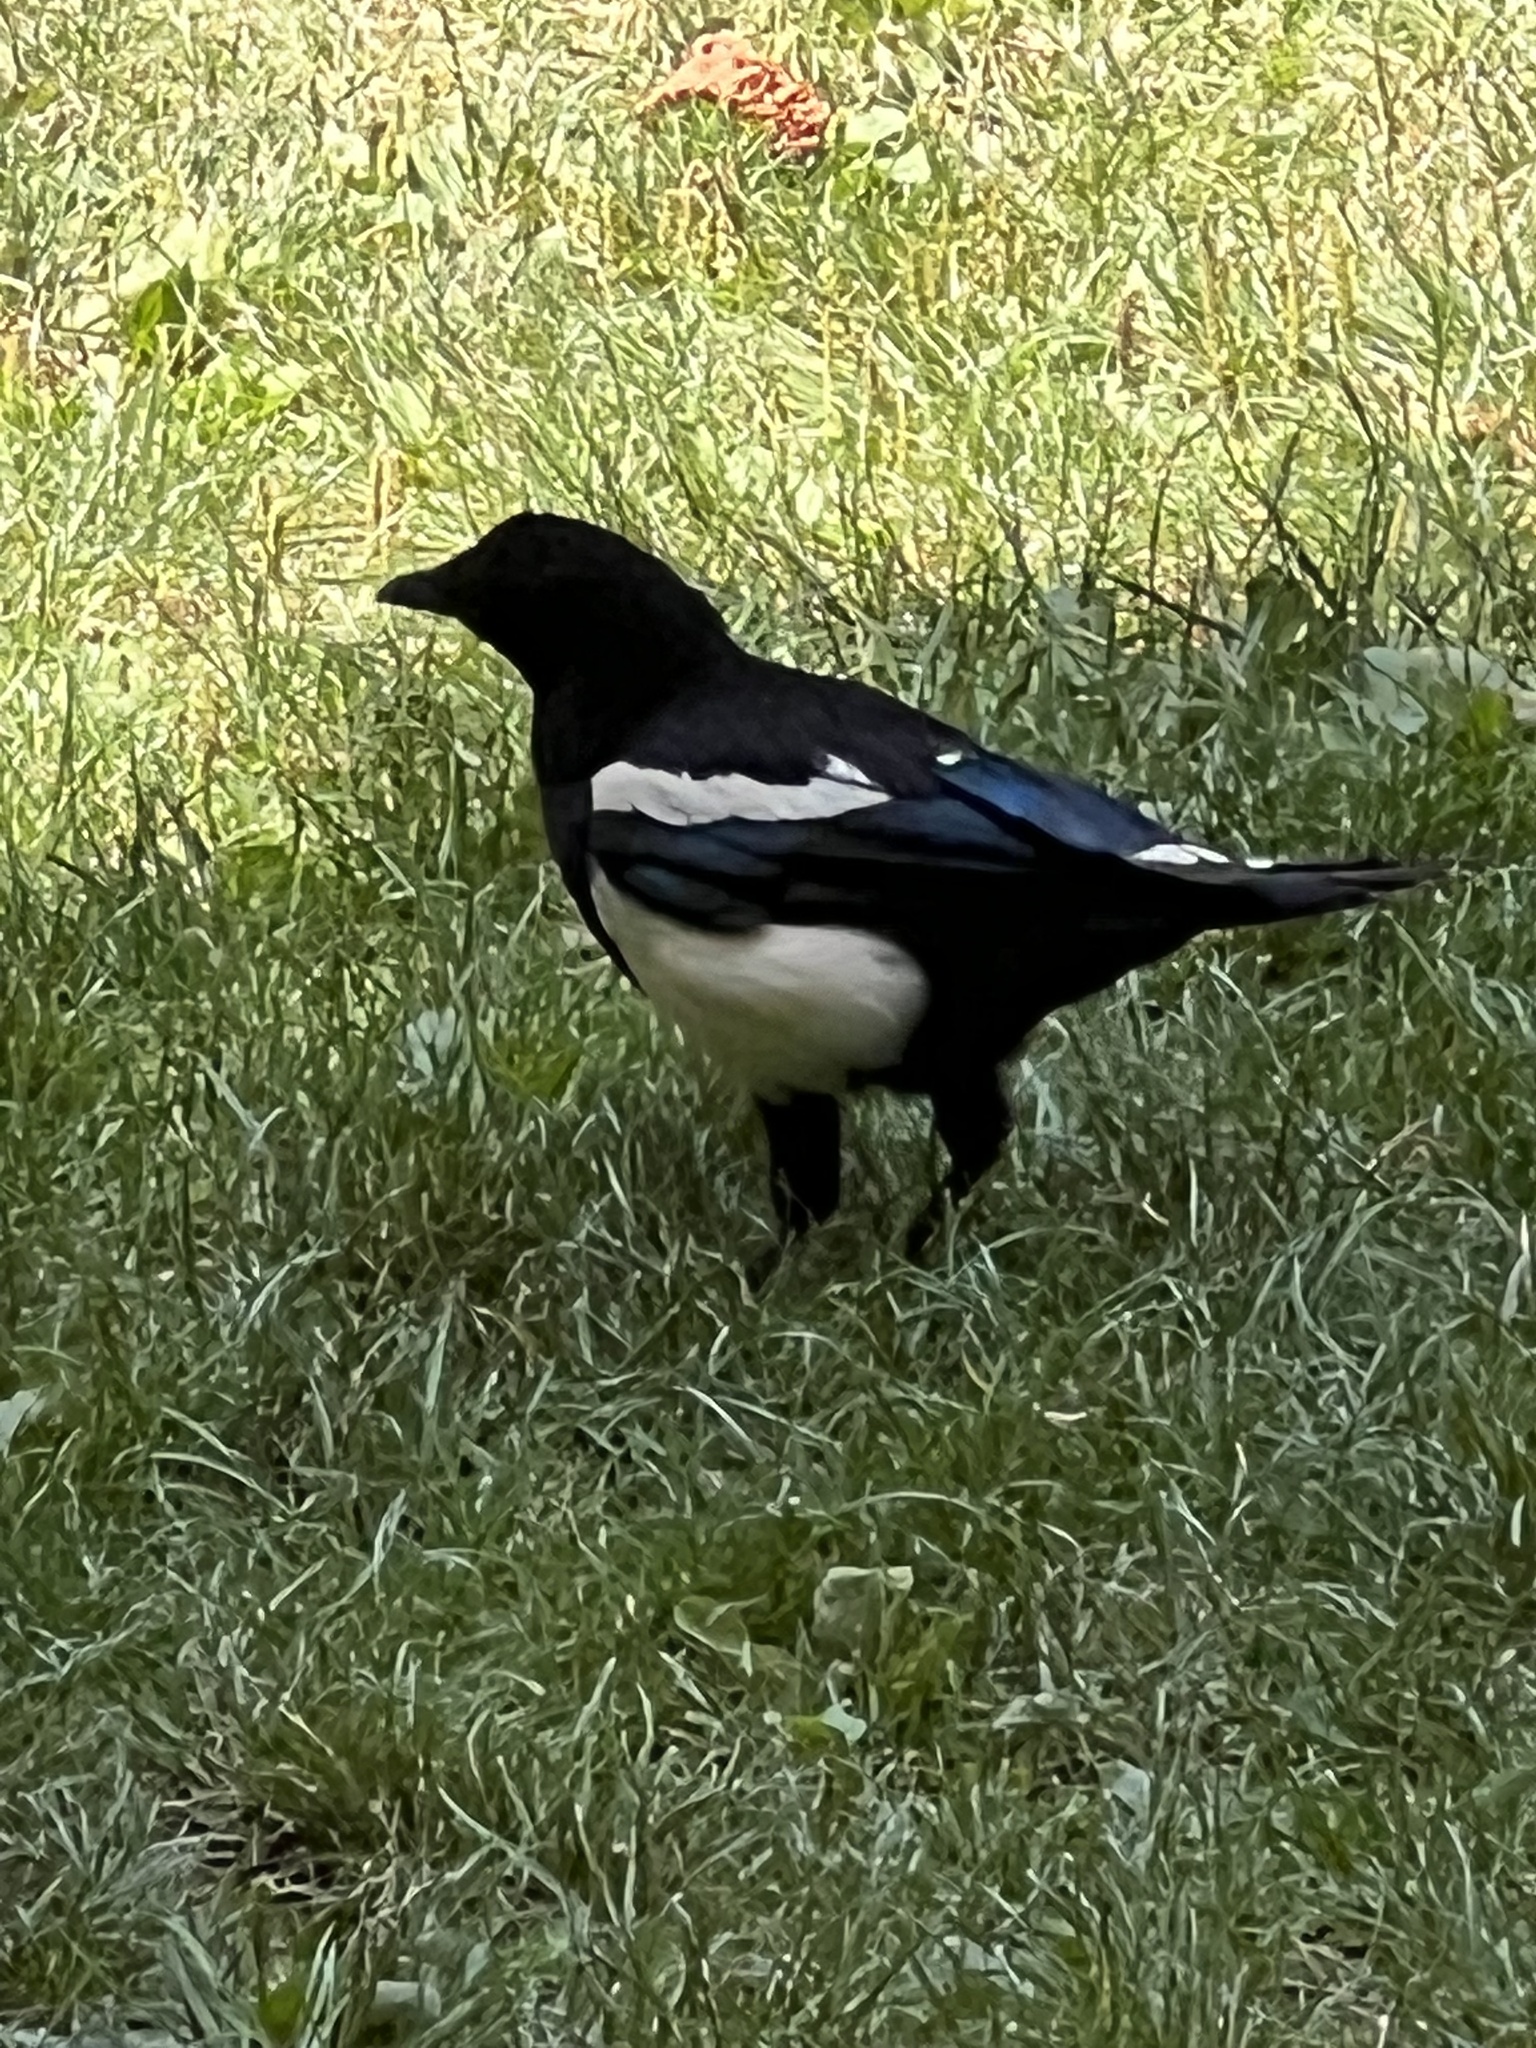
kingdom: Animalia
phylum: Chordata
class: Aves
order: Passeriformes
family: Corvidae
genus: Pica
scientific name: Pica pica
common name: Eurasian magpie
